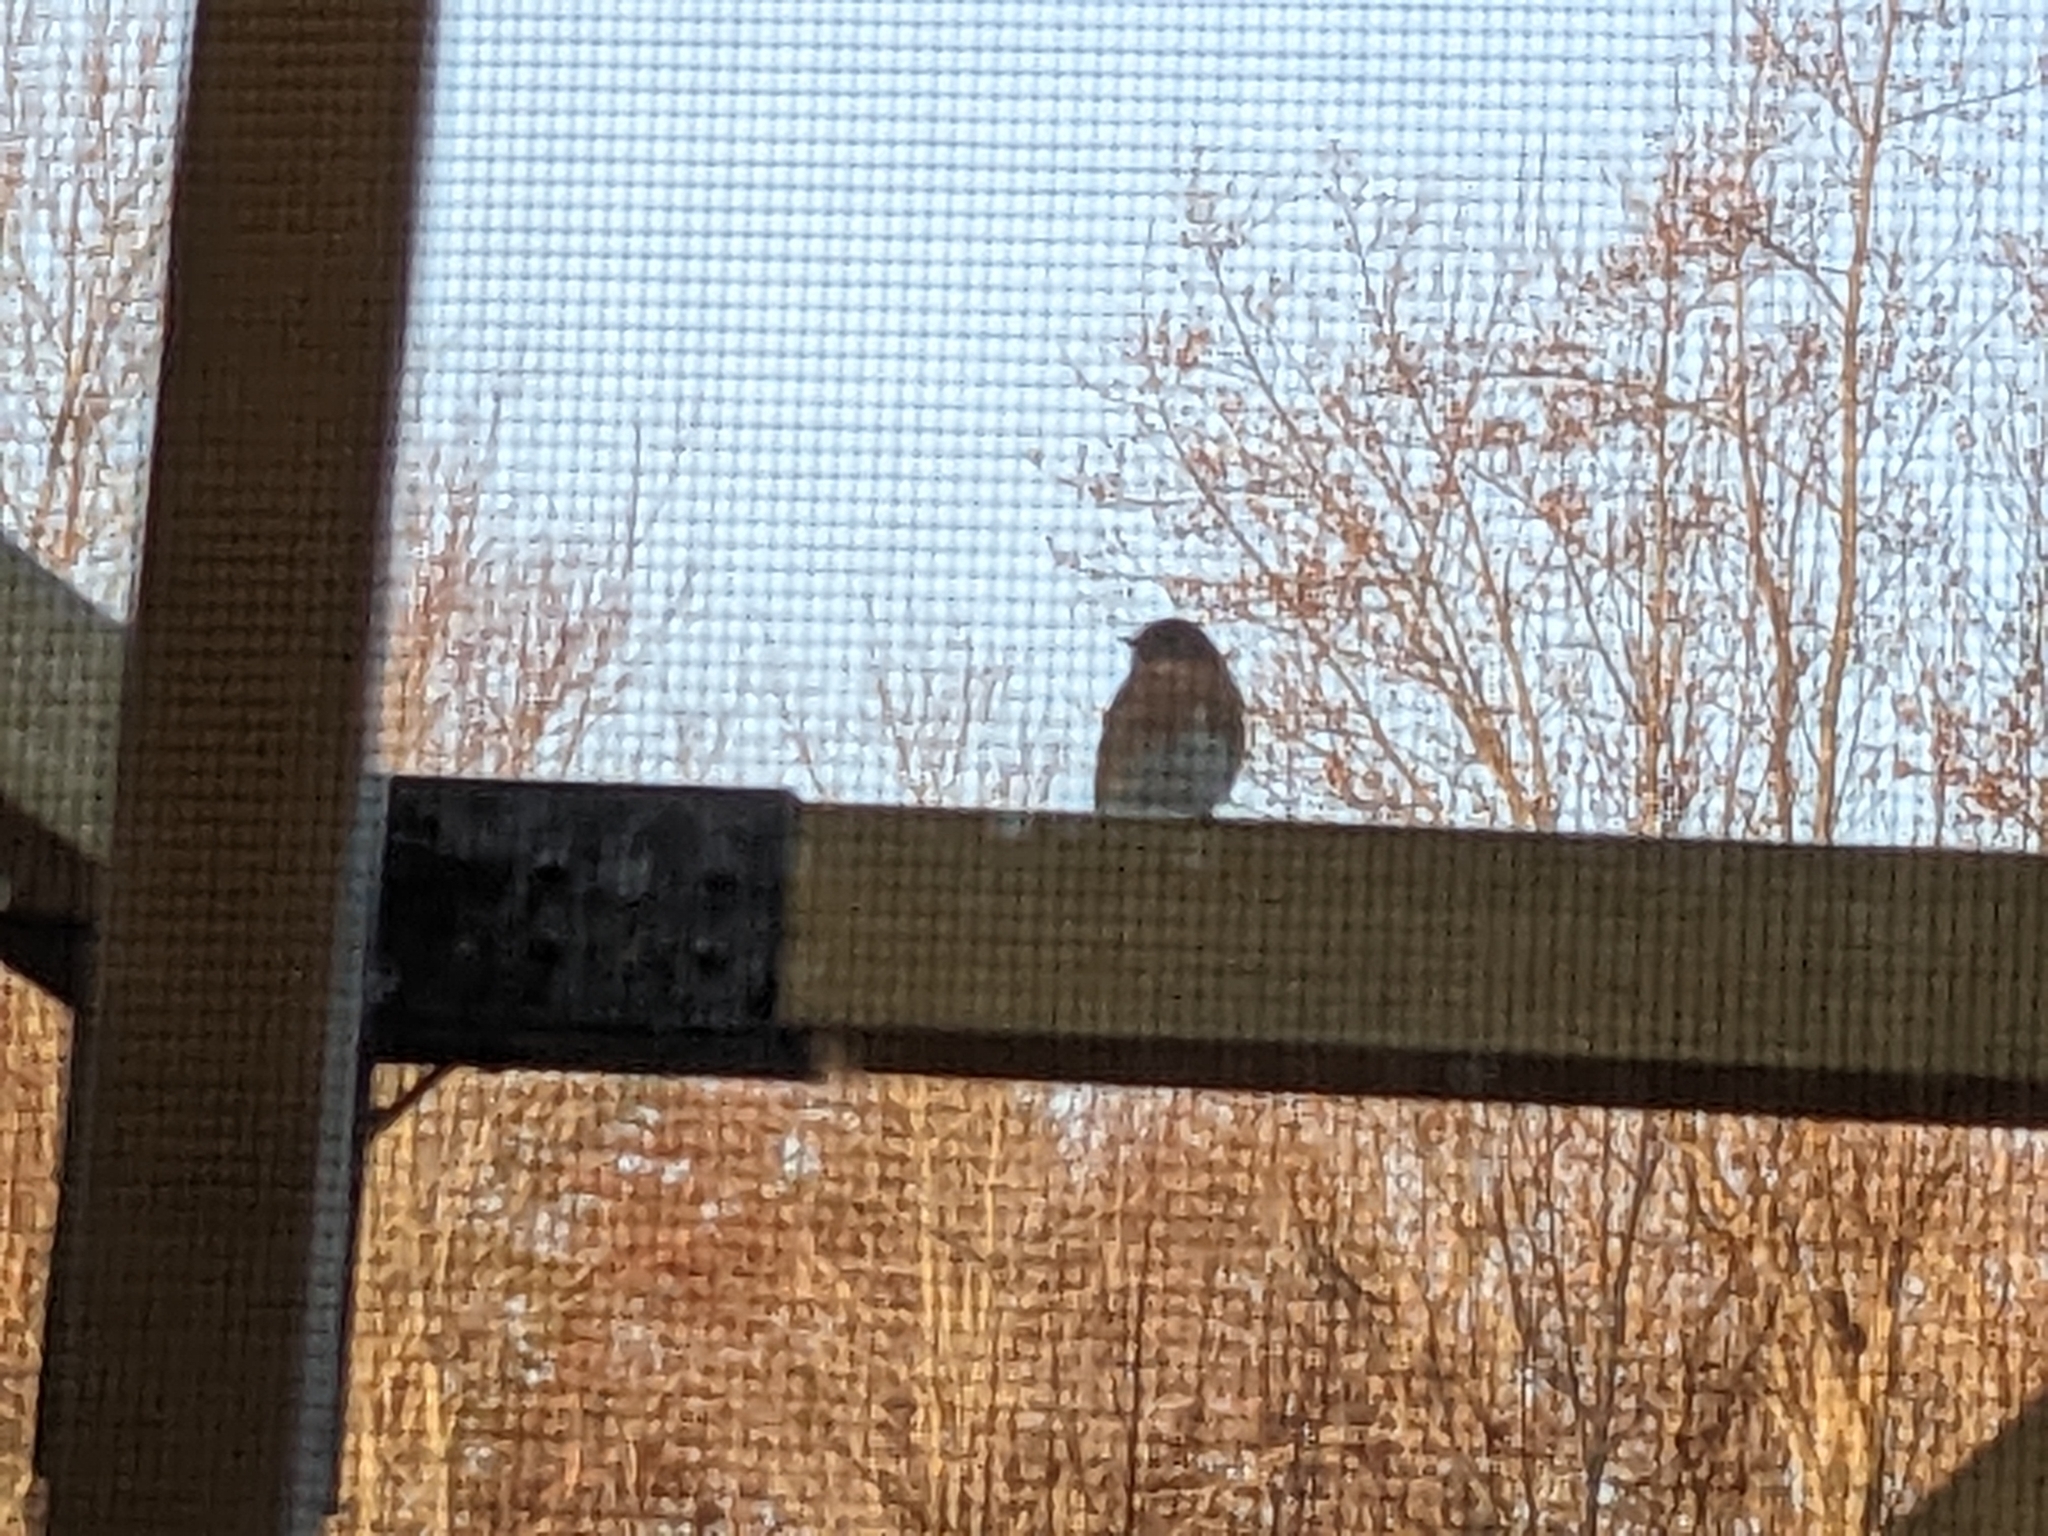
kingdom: Animalia
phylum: Chordata
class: Aves
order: Passeriformes
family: Turdidae
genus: Sialia
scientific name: Sialia sialis
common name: Eastern bluebird
